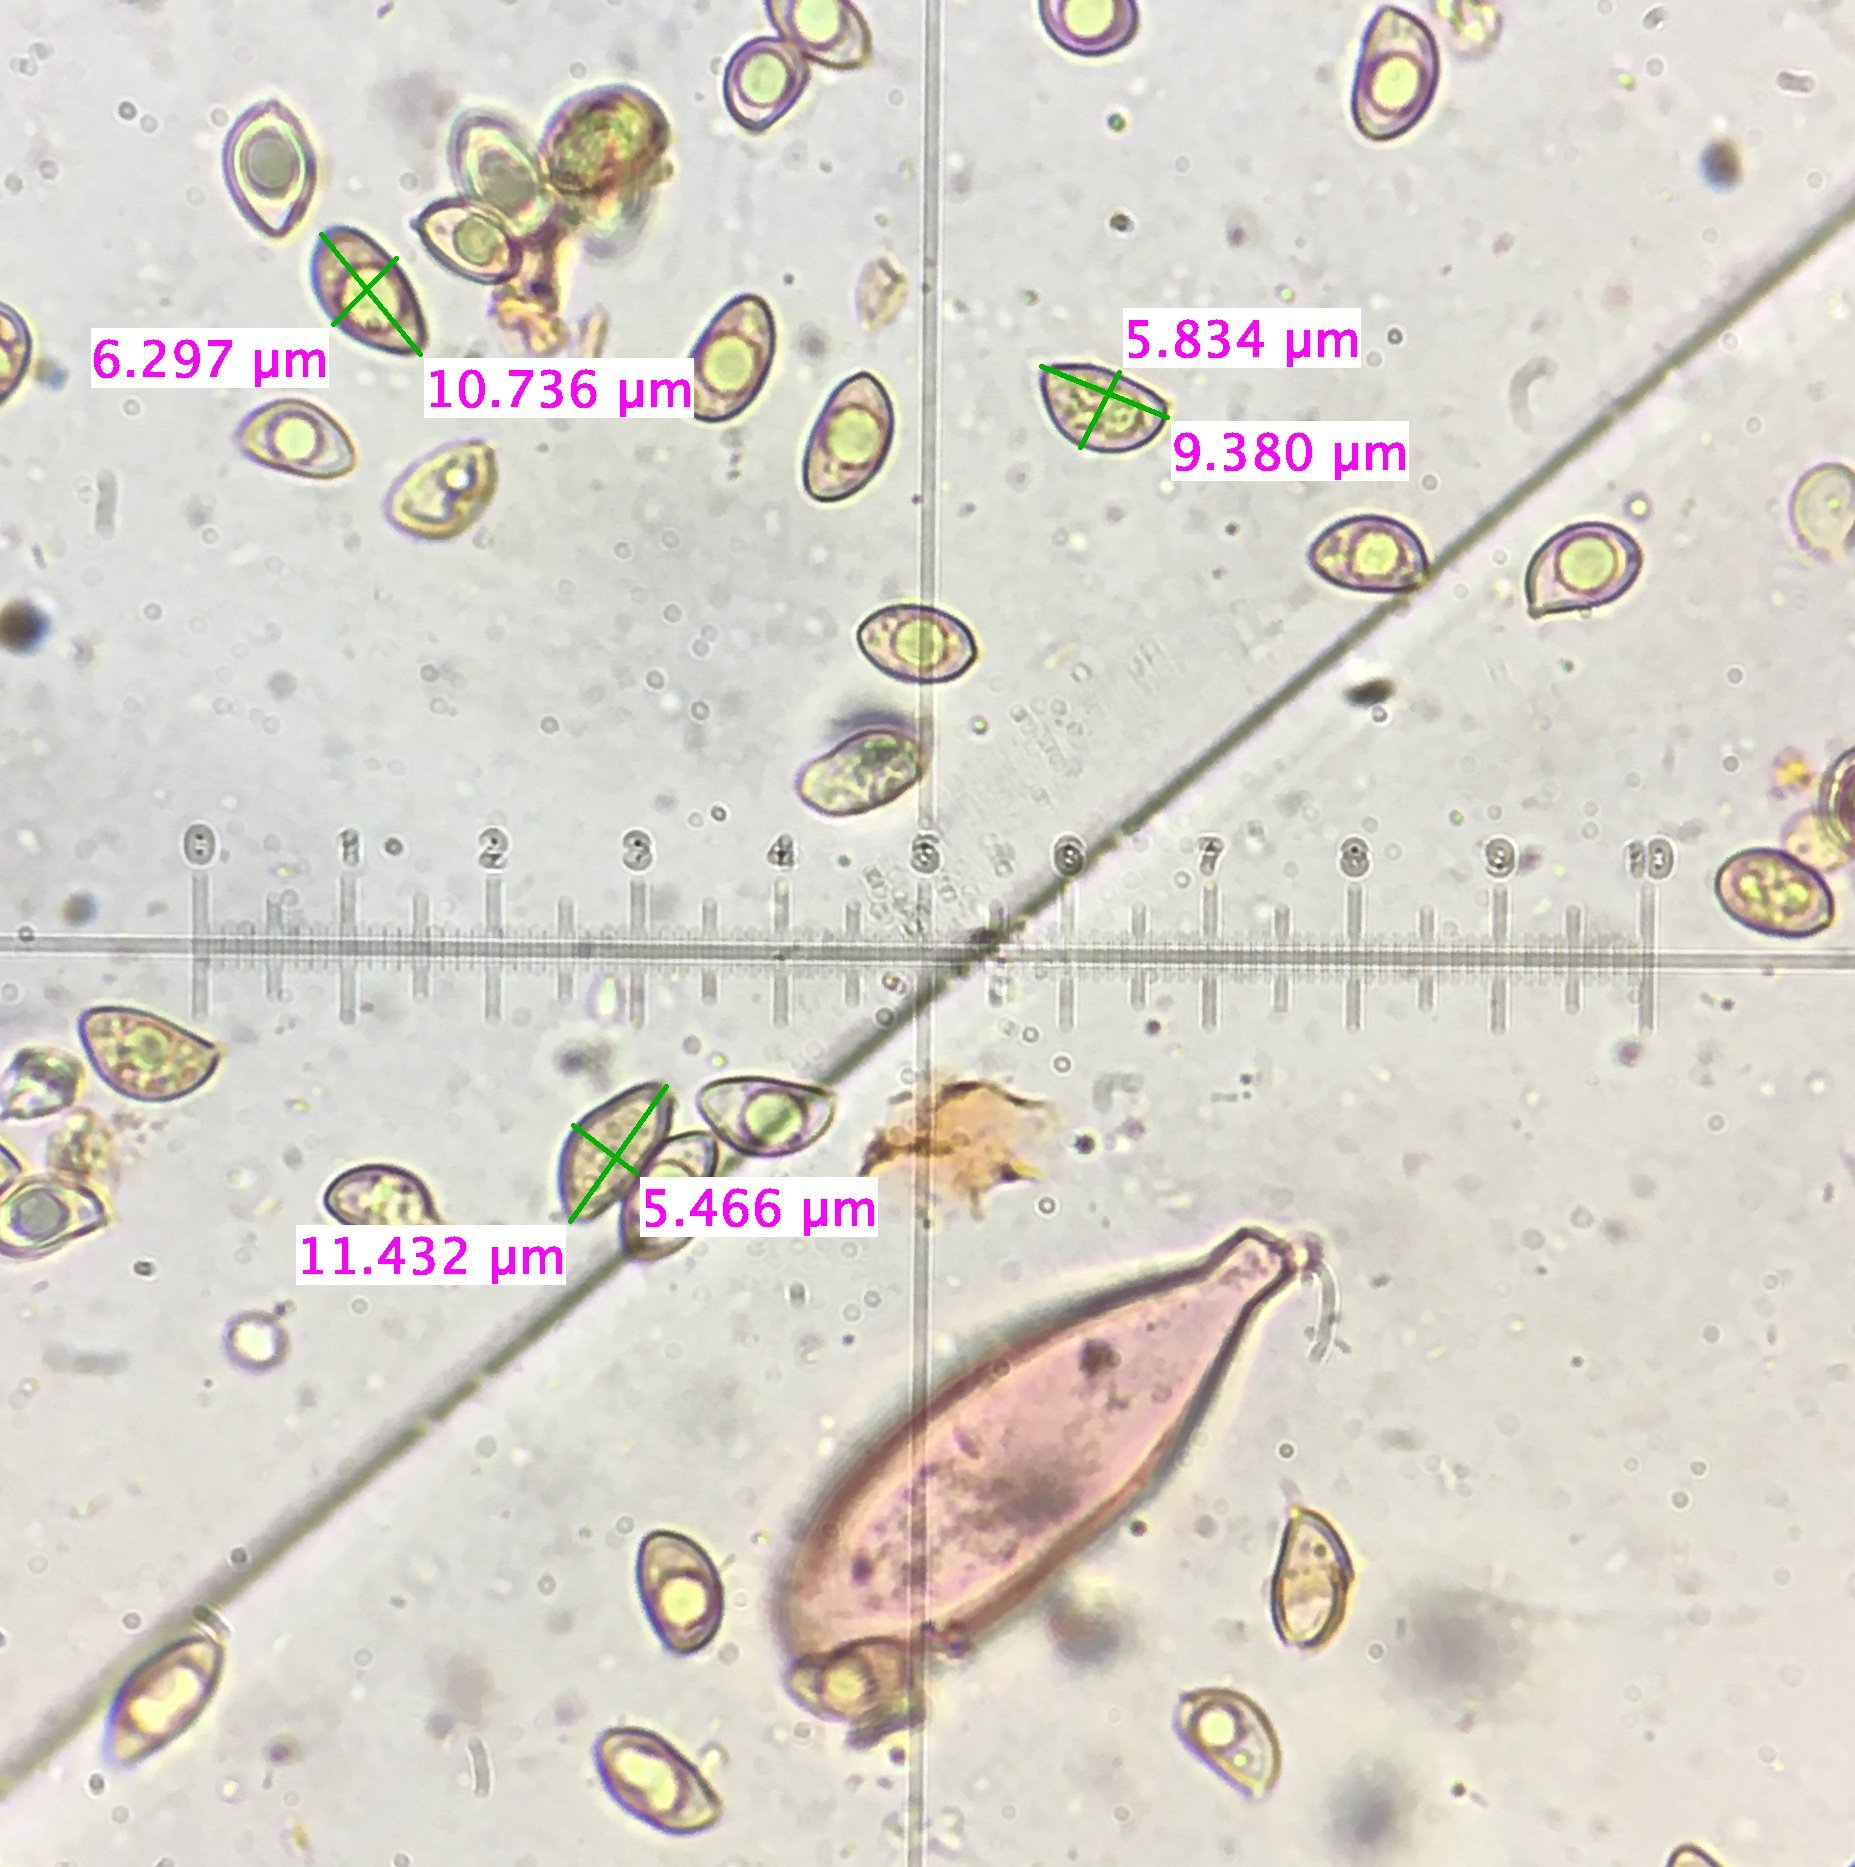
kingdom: Fungi
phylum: Basidiomycota
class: Agaricomycetes
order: Agaricales
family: Inocybaceae
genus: Inocybe
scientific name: Inocybe picrosma
